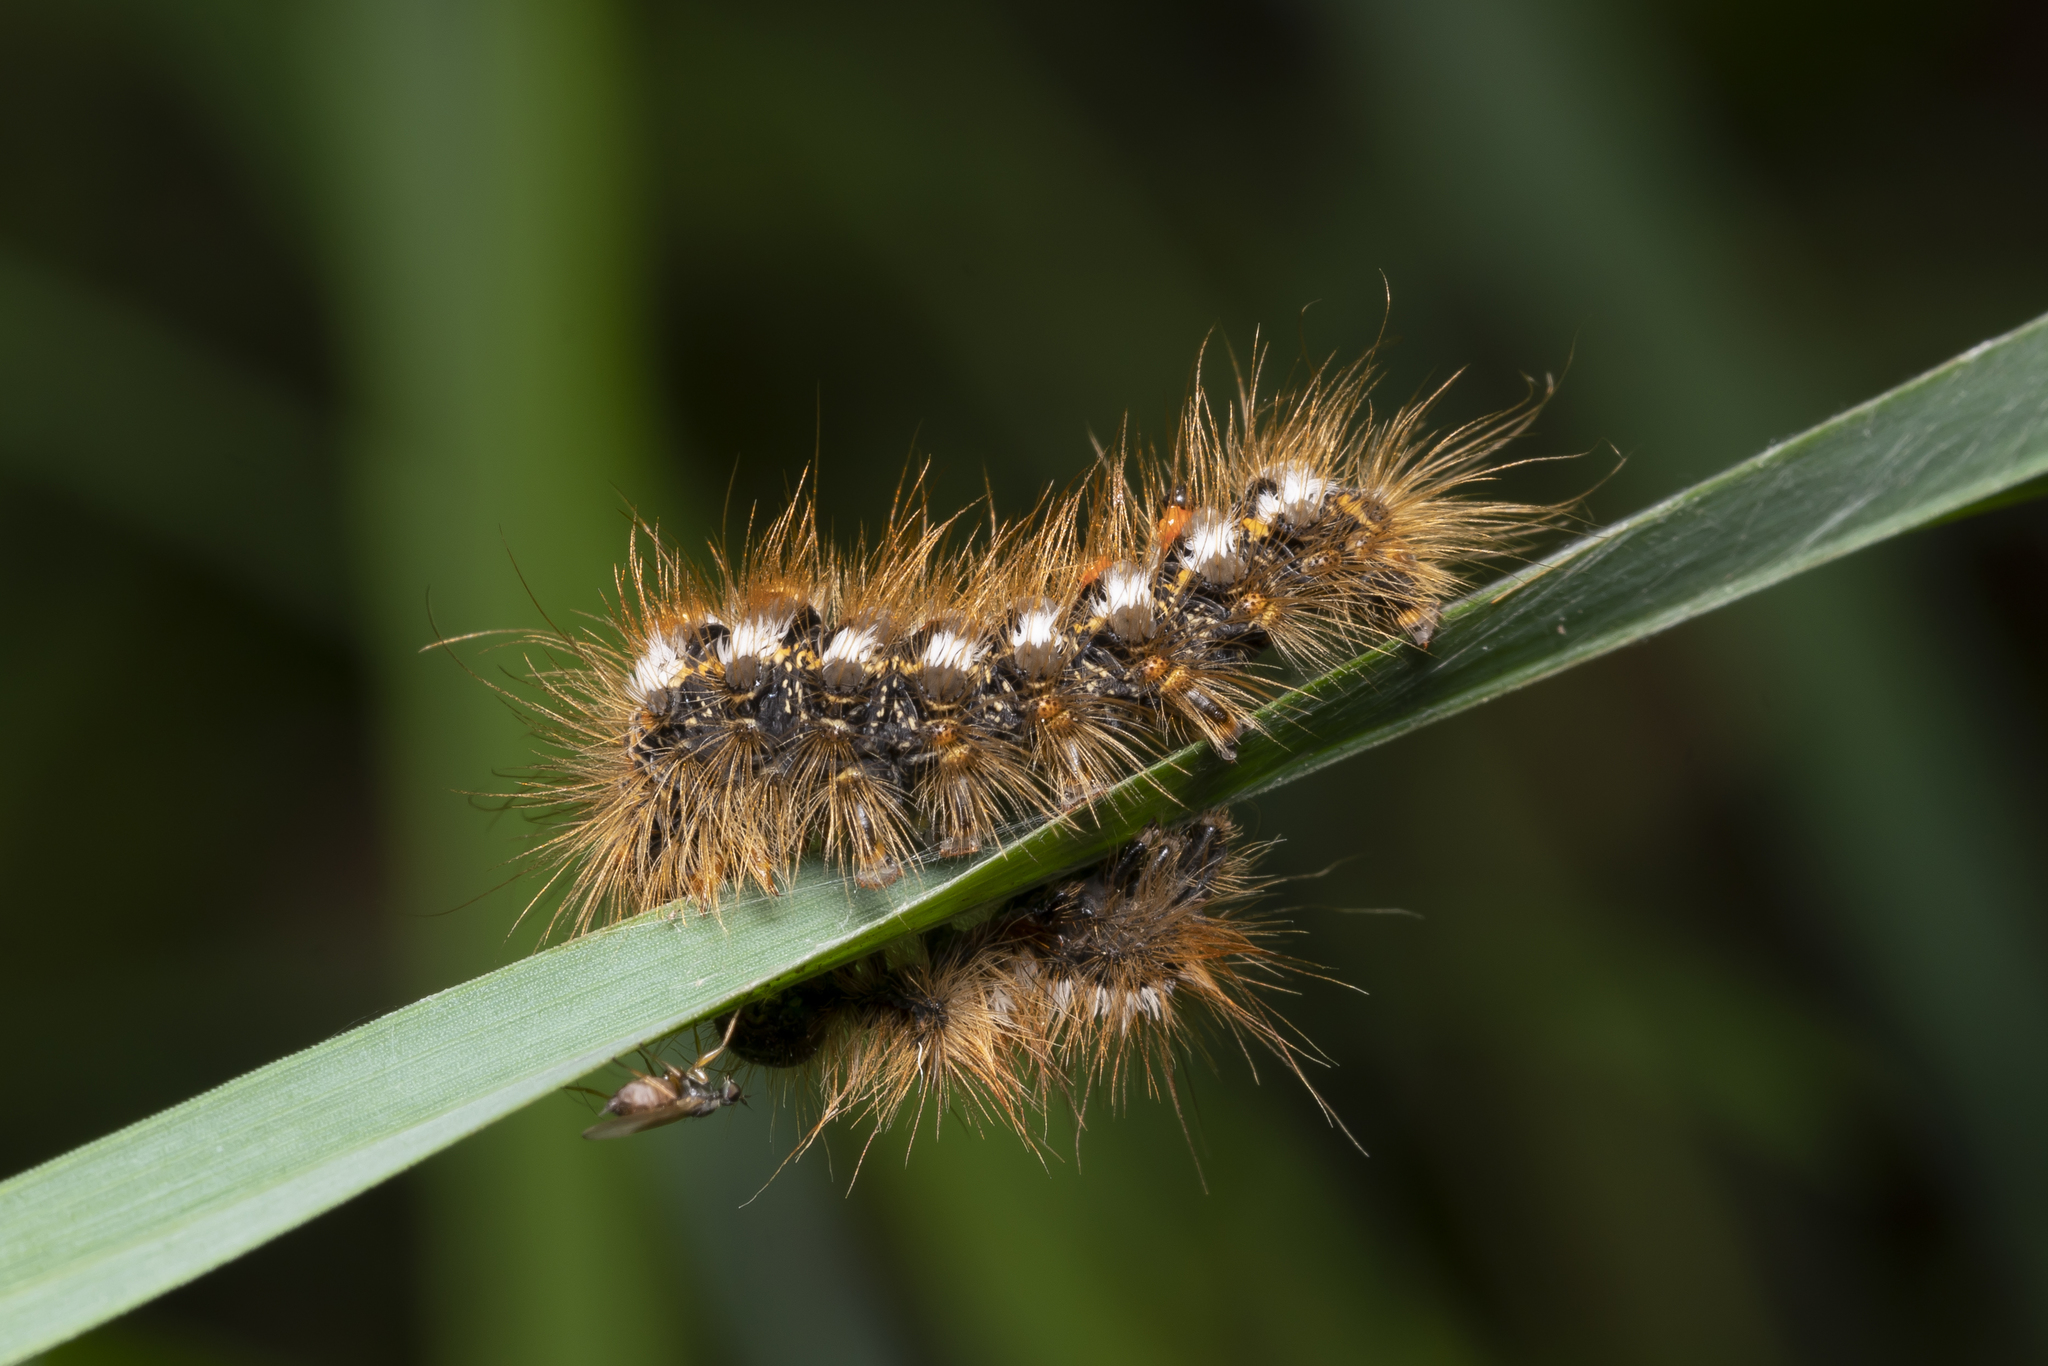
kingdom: Animalia
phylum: Arthropoda
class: Insecta
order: Lepidoptera
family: Erebidae
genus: Euproctis
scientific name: Euproctis chrysorrhoea
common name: Brown-tail
